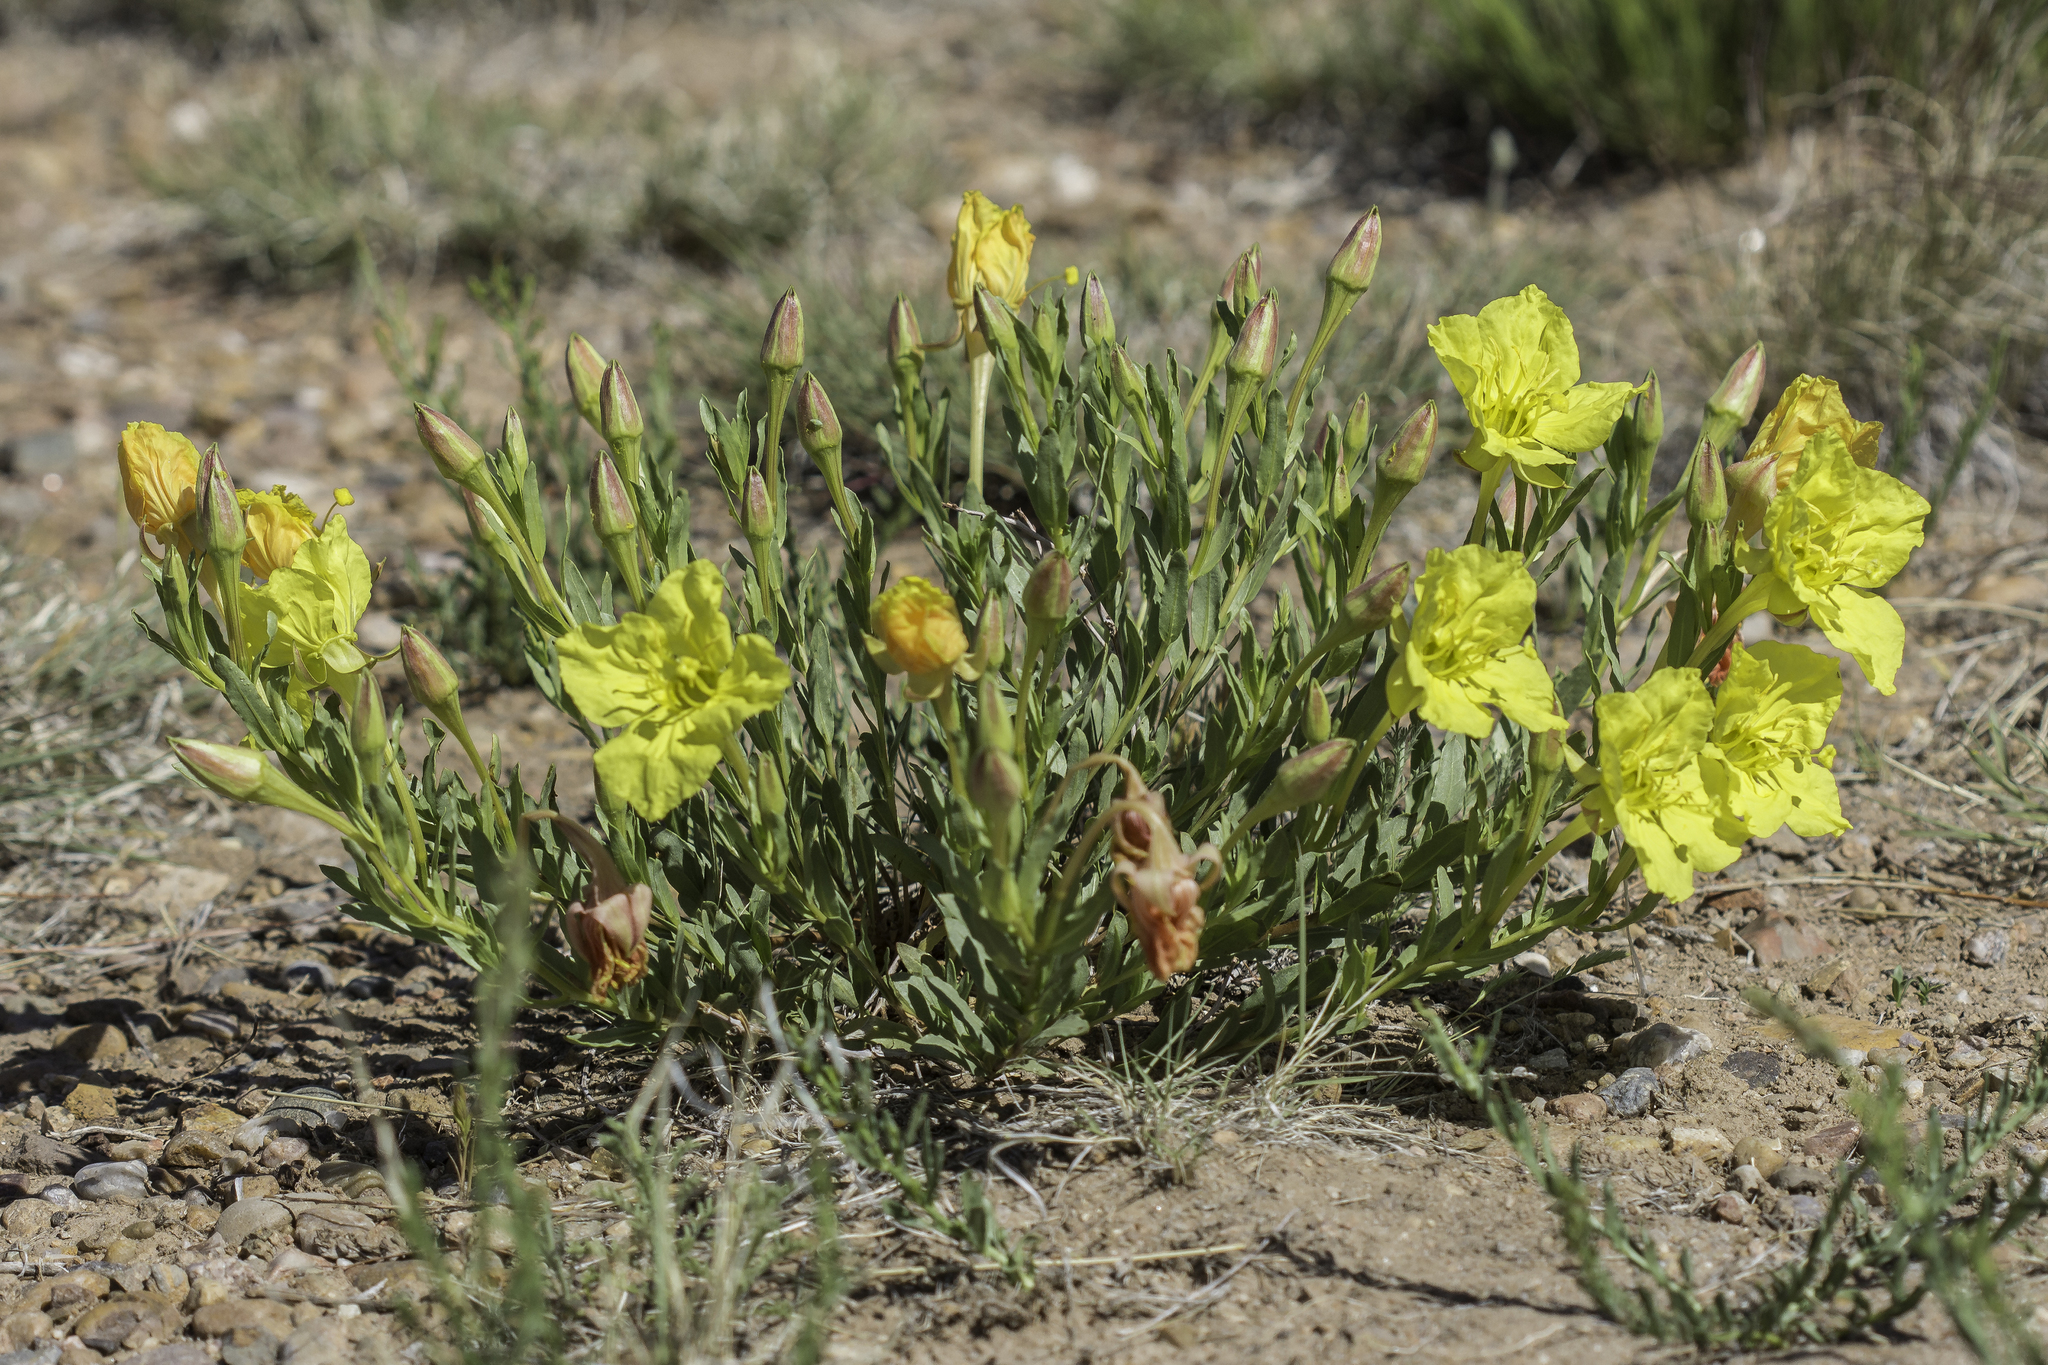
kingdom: Plantae
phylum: Tracheophyta
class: Magnoliopsida
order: Myrtales
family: Onagraceae
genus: Oenothera
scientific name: Oenothera hartwegii
